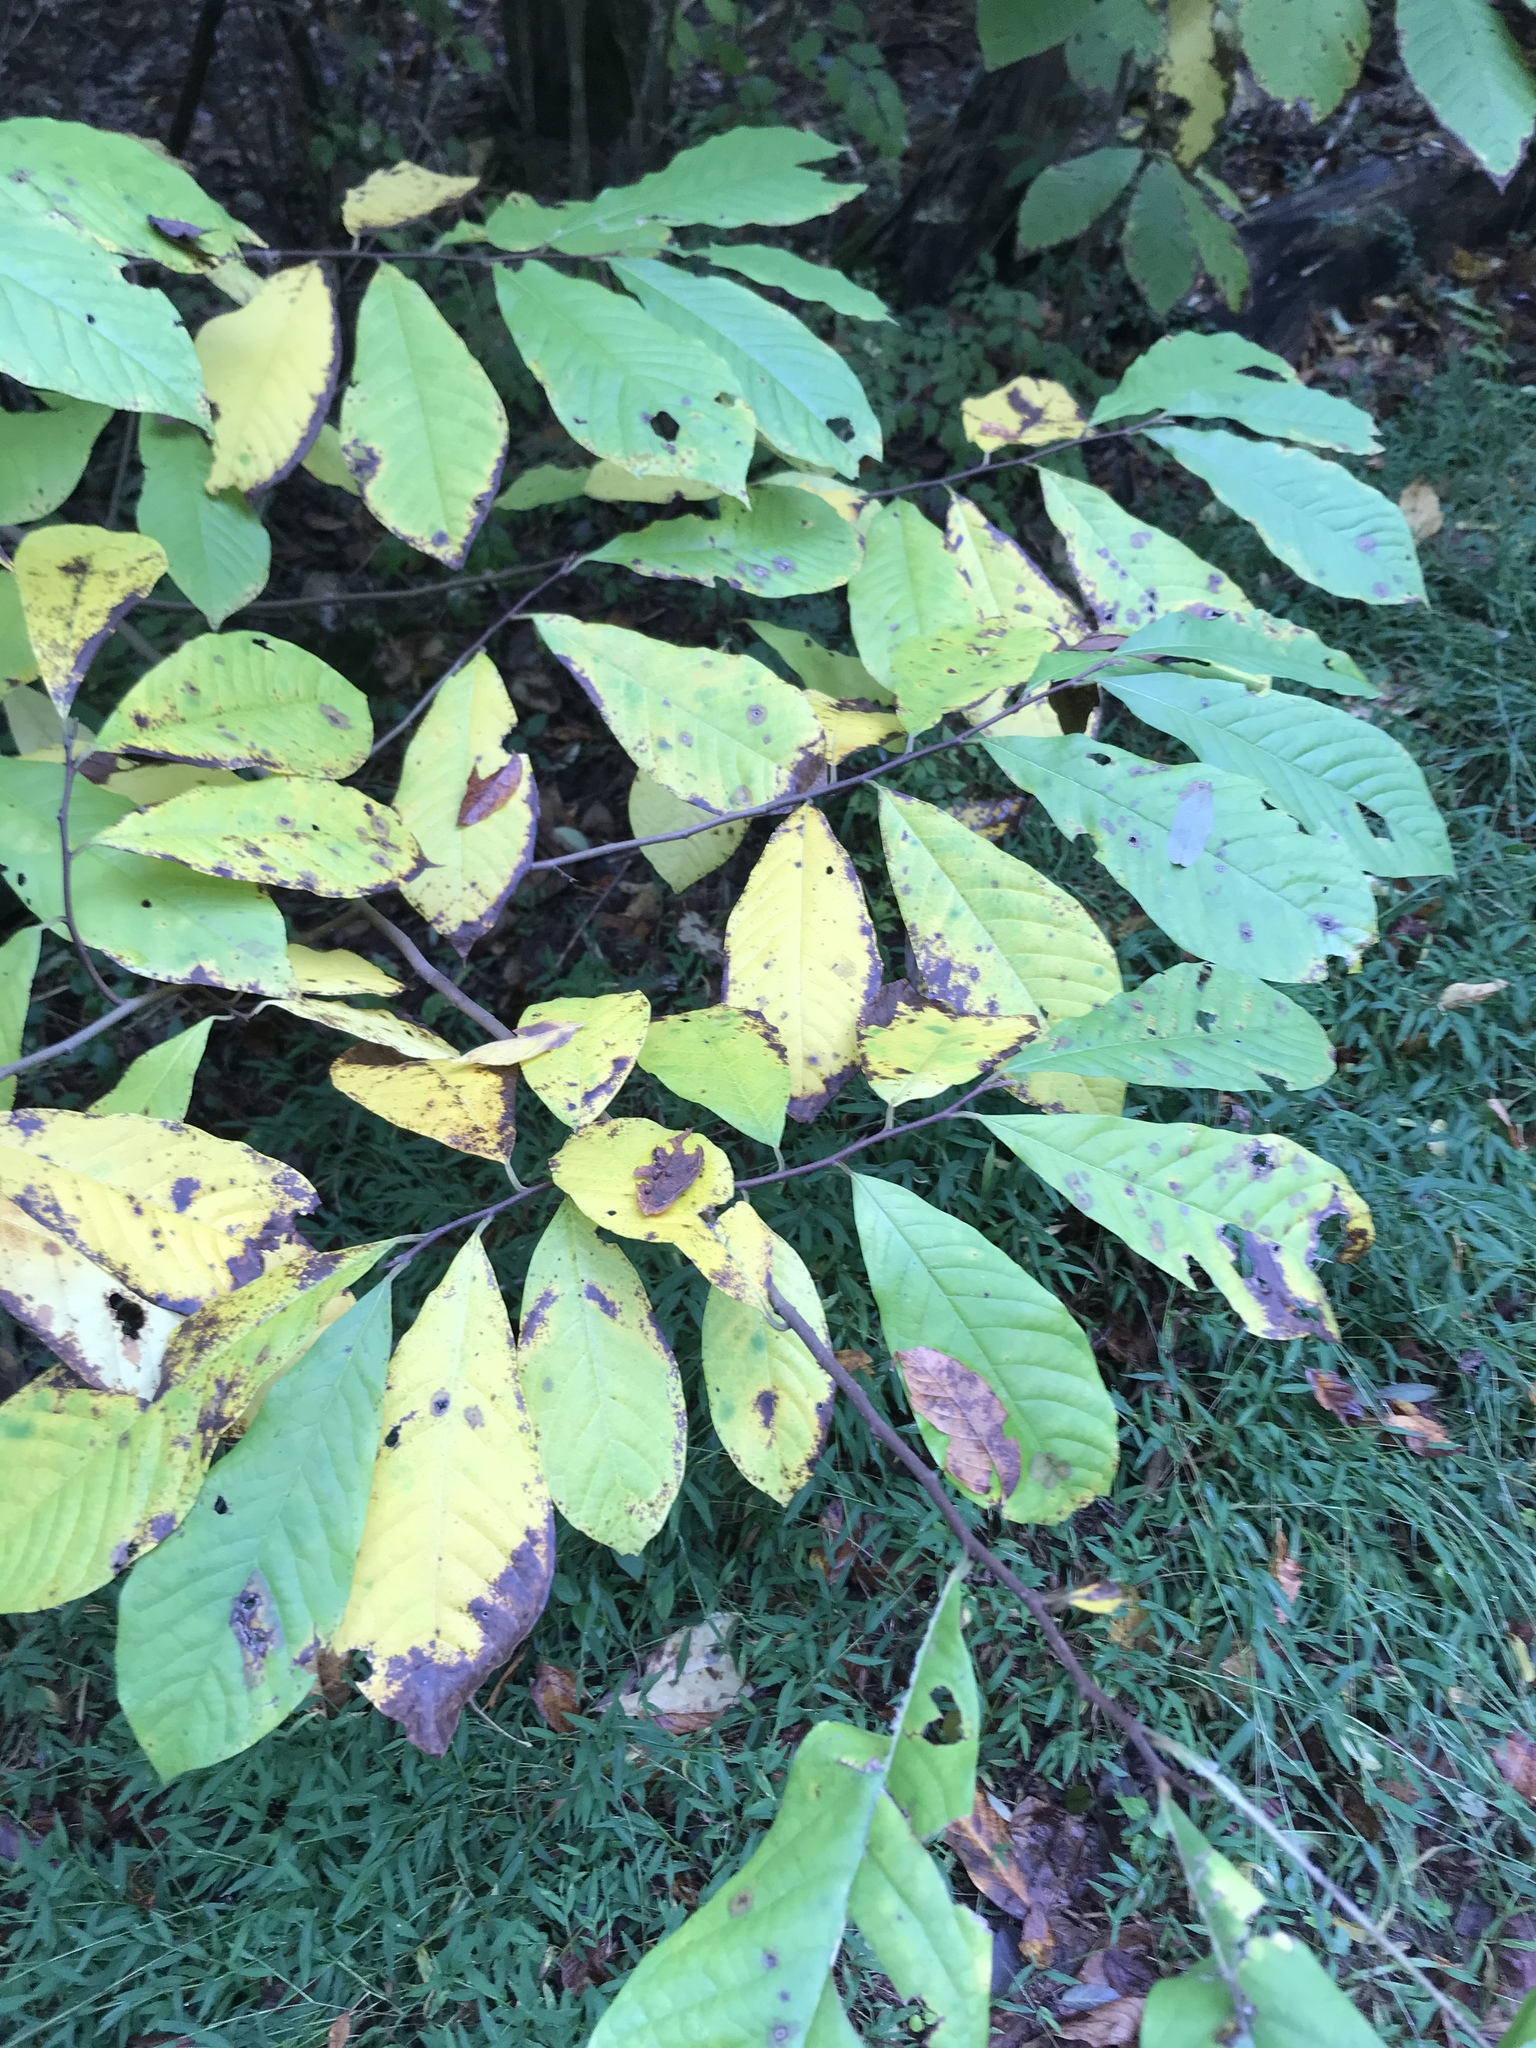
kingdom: Plantae
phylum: Tracheophyta
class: Magnoliopsida
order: Magnoliales
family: Annonaceae
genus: Asimina
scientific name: Asimina triloba
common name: Dog-banana
